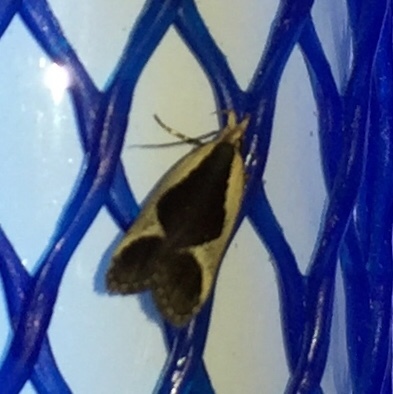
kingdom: Animalia
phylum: Arthropoda
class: Insecta
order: Lepidoptera
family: Gelechiidae
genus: Dichomeris
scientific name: Dichomeris flavocostella
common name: Cream-edged dichomeris moth
